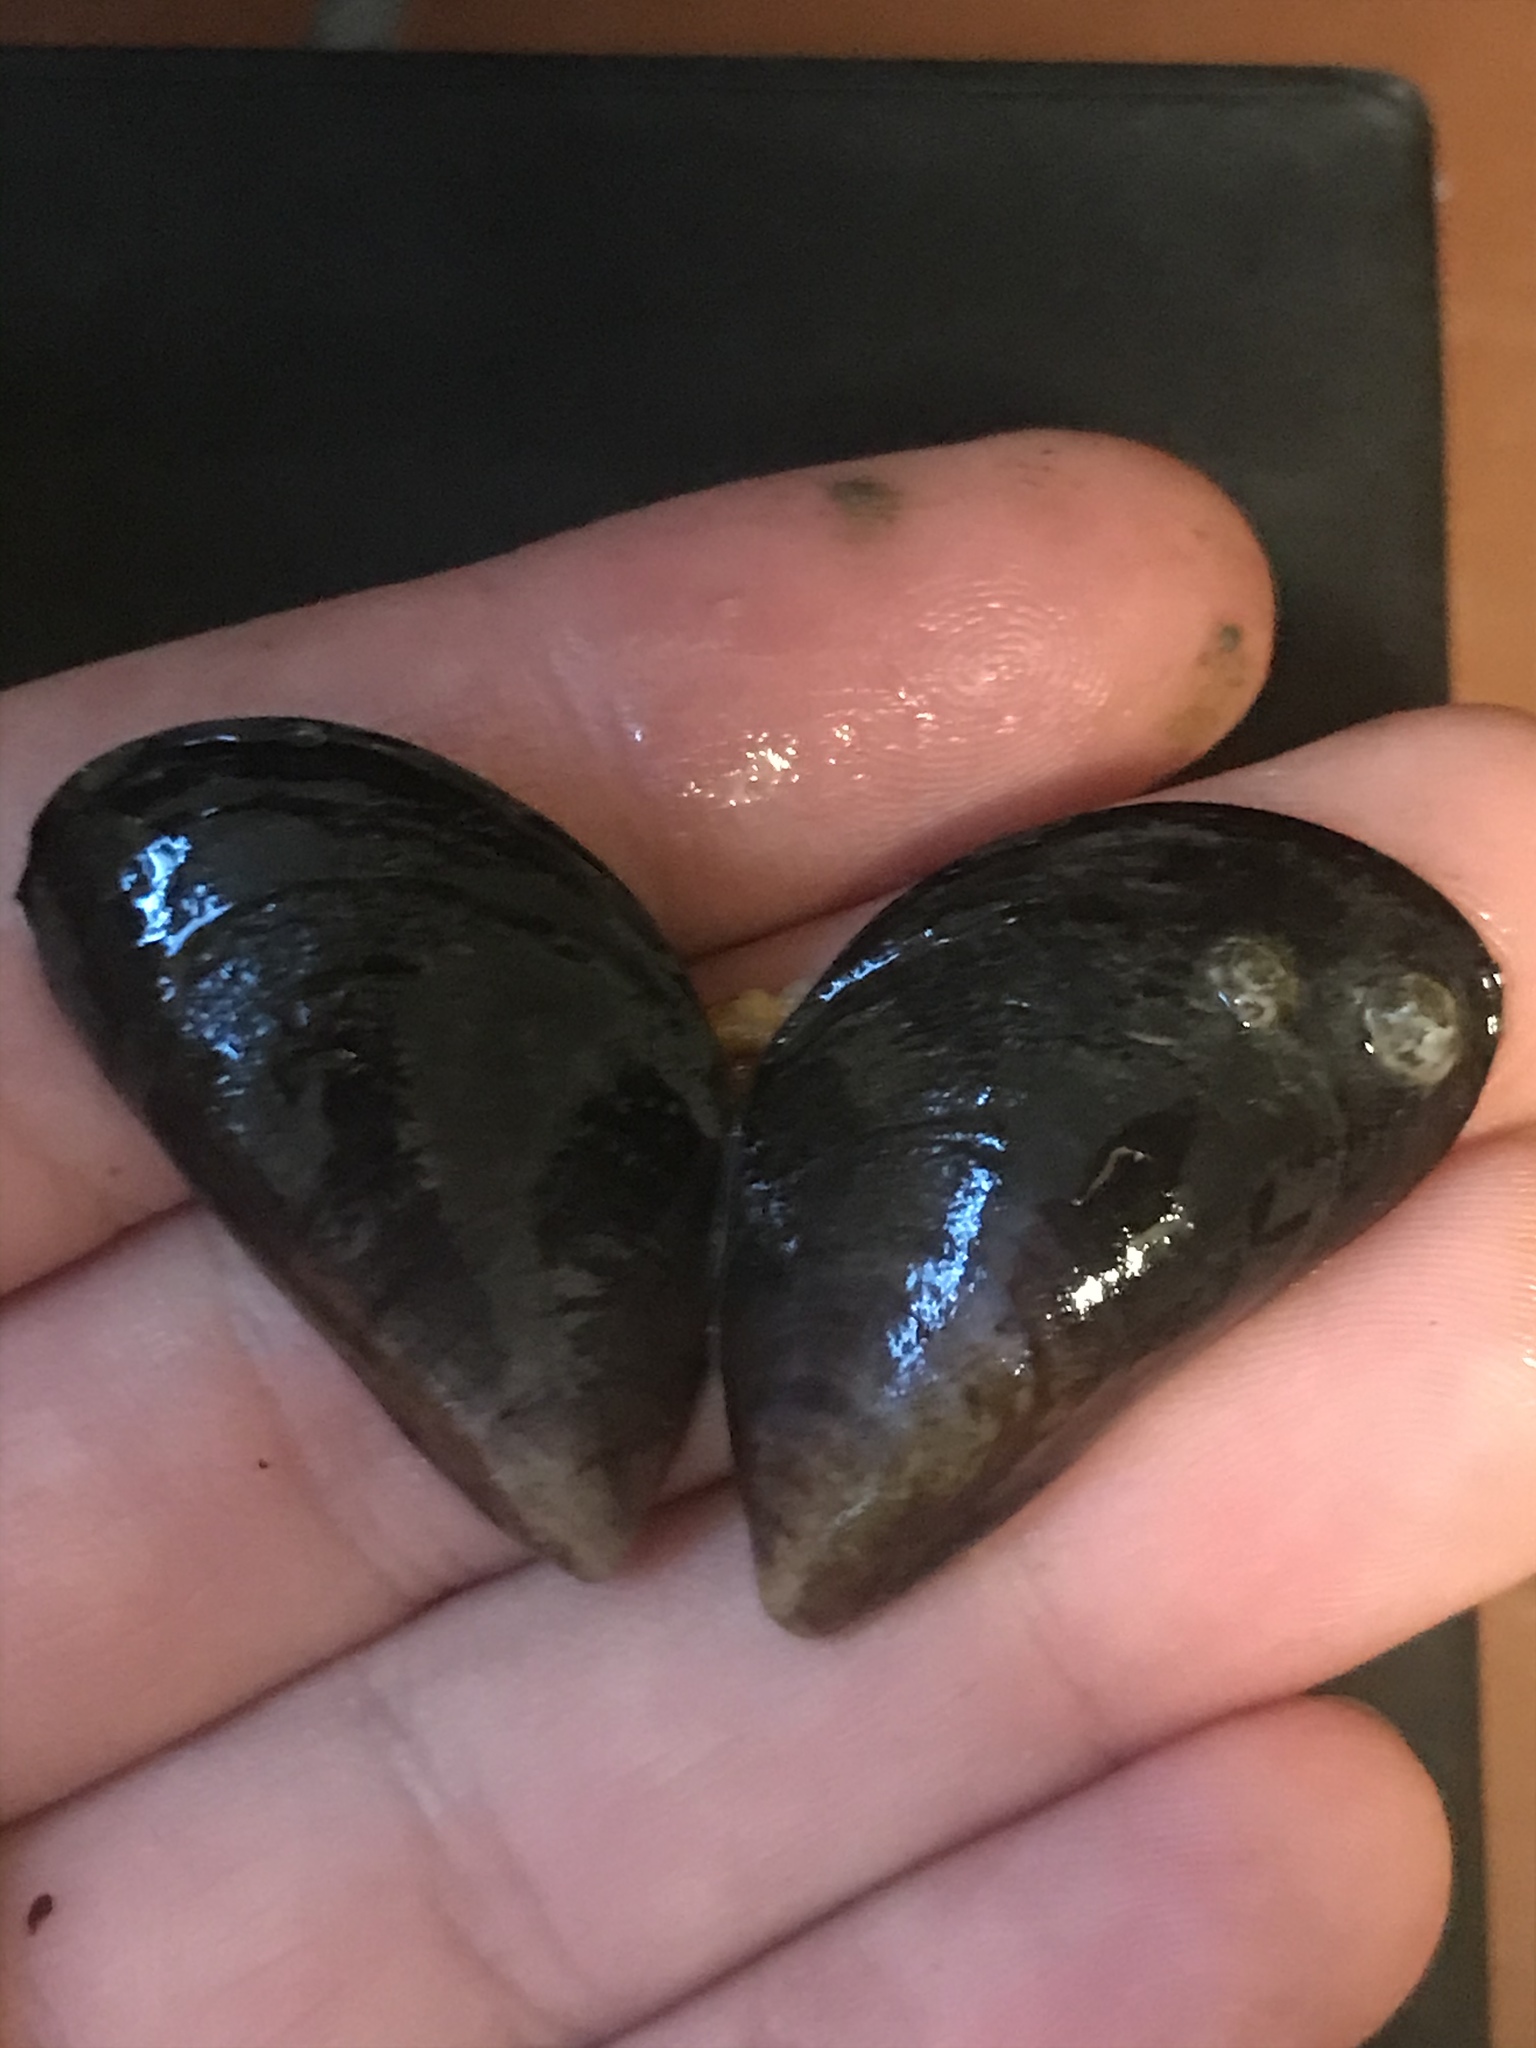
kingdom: Animalia
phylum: Mollusca
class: Bivalvia
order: Mytilida
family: Mytilidae
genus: Mytilus
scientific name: Mytilus
